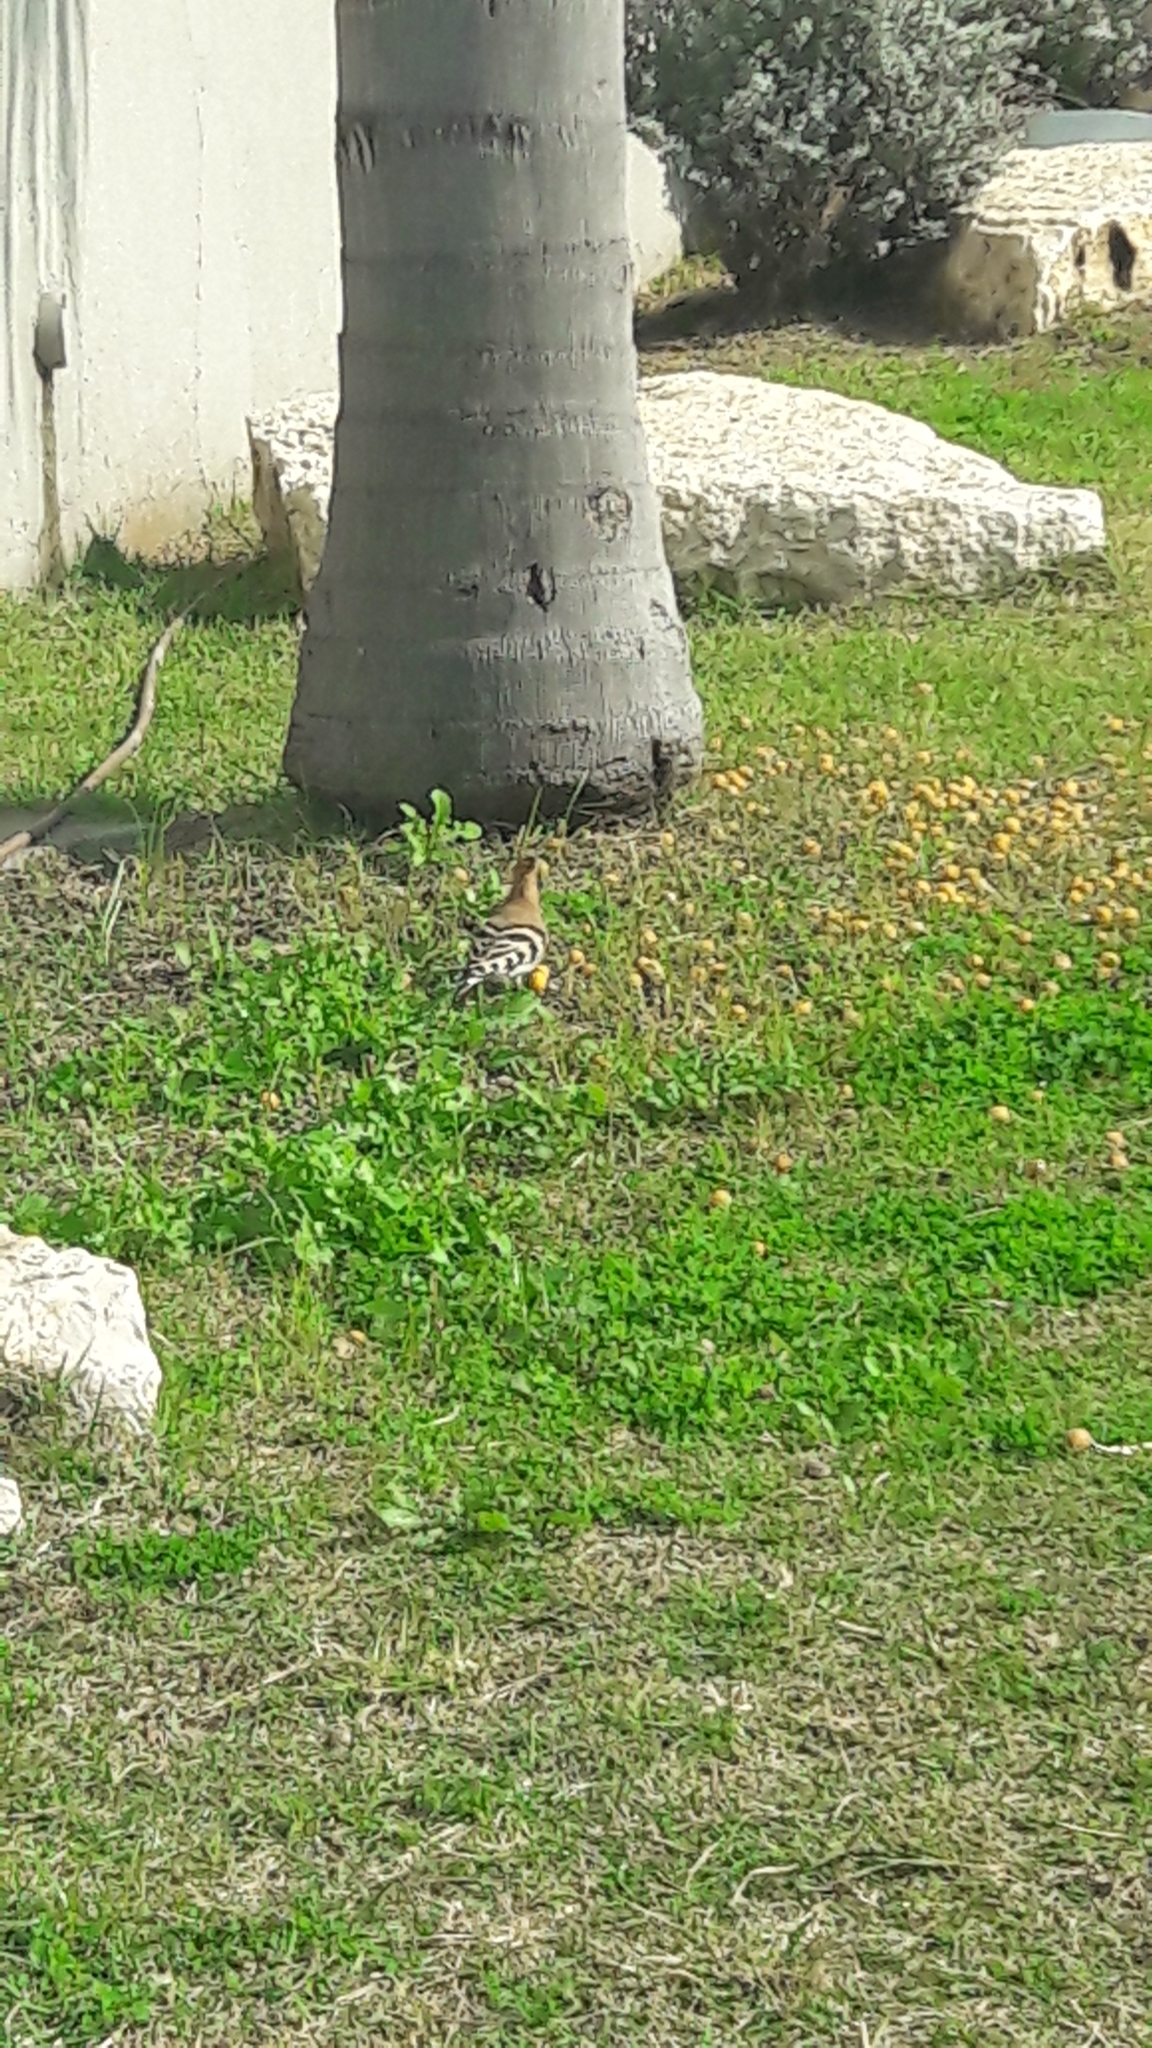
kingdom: Animalia
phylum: Chordata
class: Aves
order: Bucerotiformes
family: Upupidae
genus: Upupa
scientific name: Upupa epops
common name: Eurasian hoopoe
